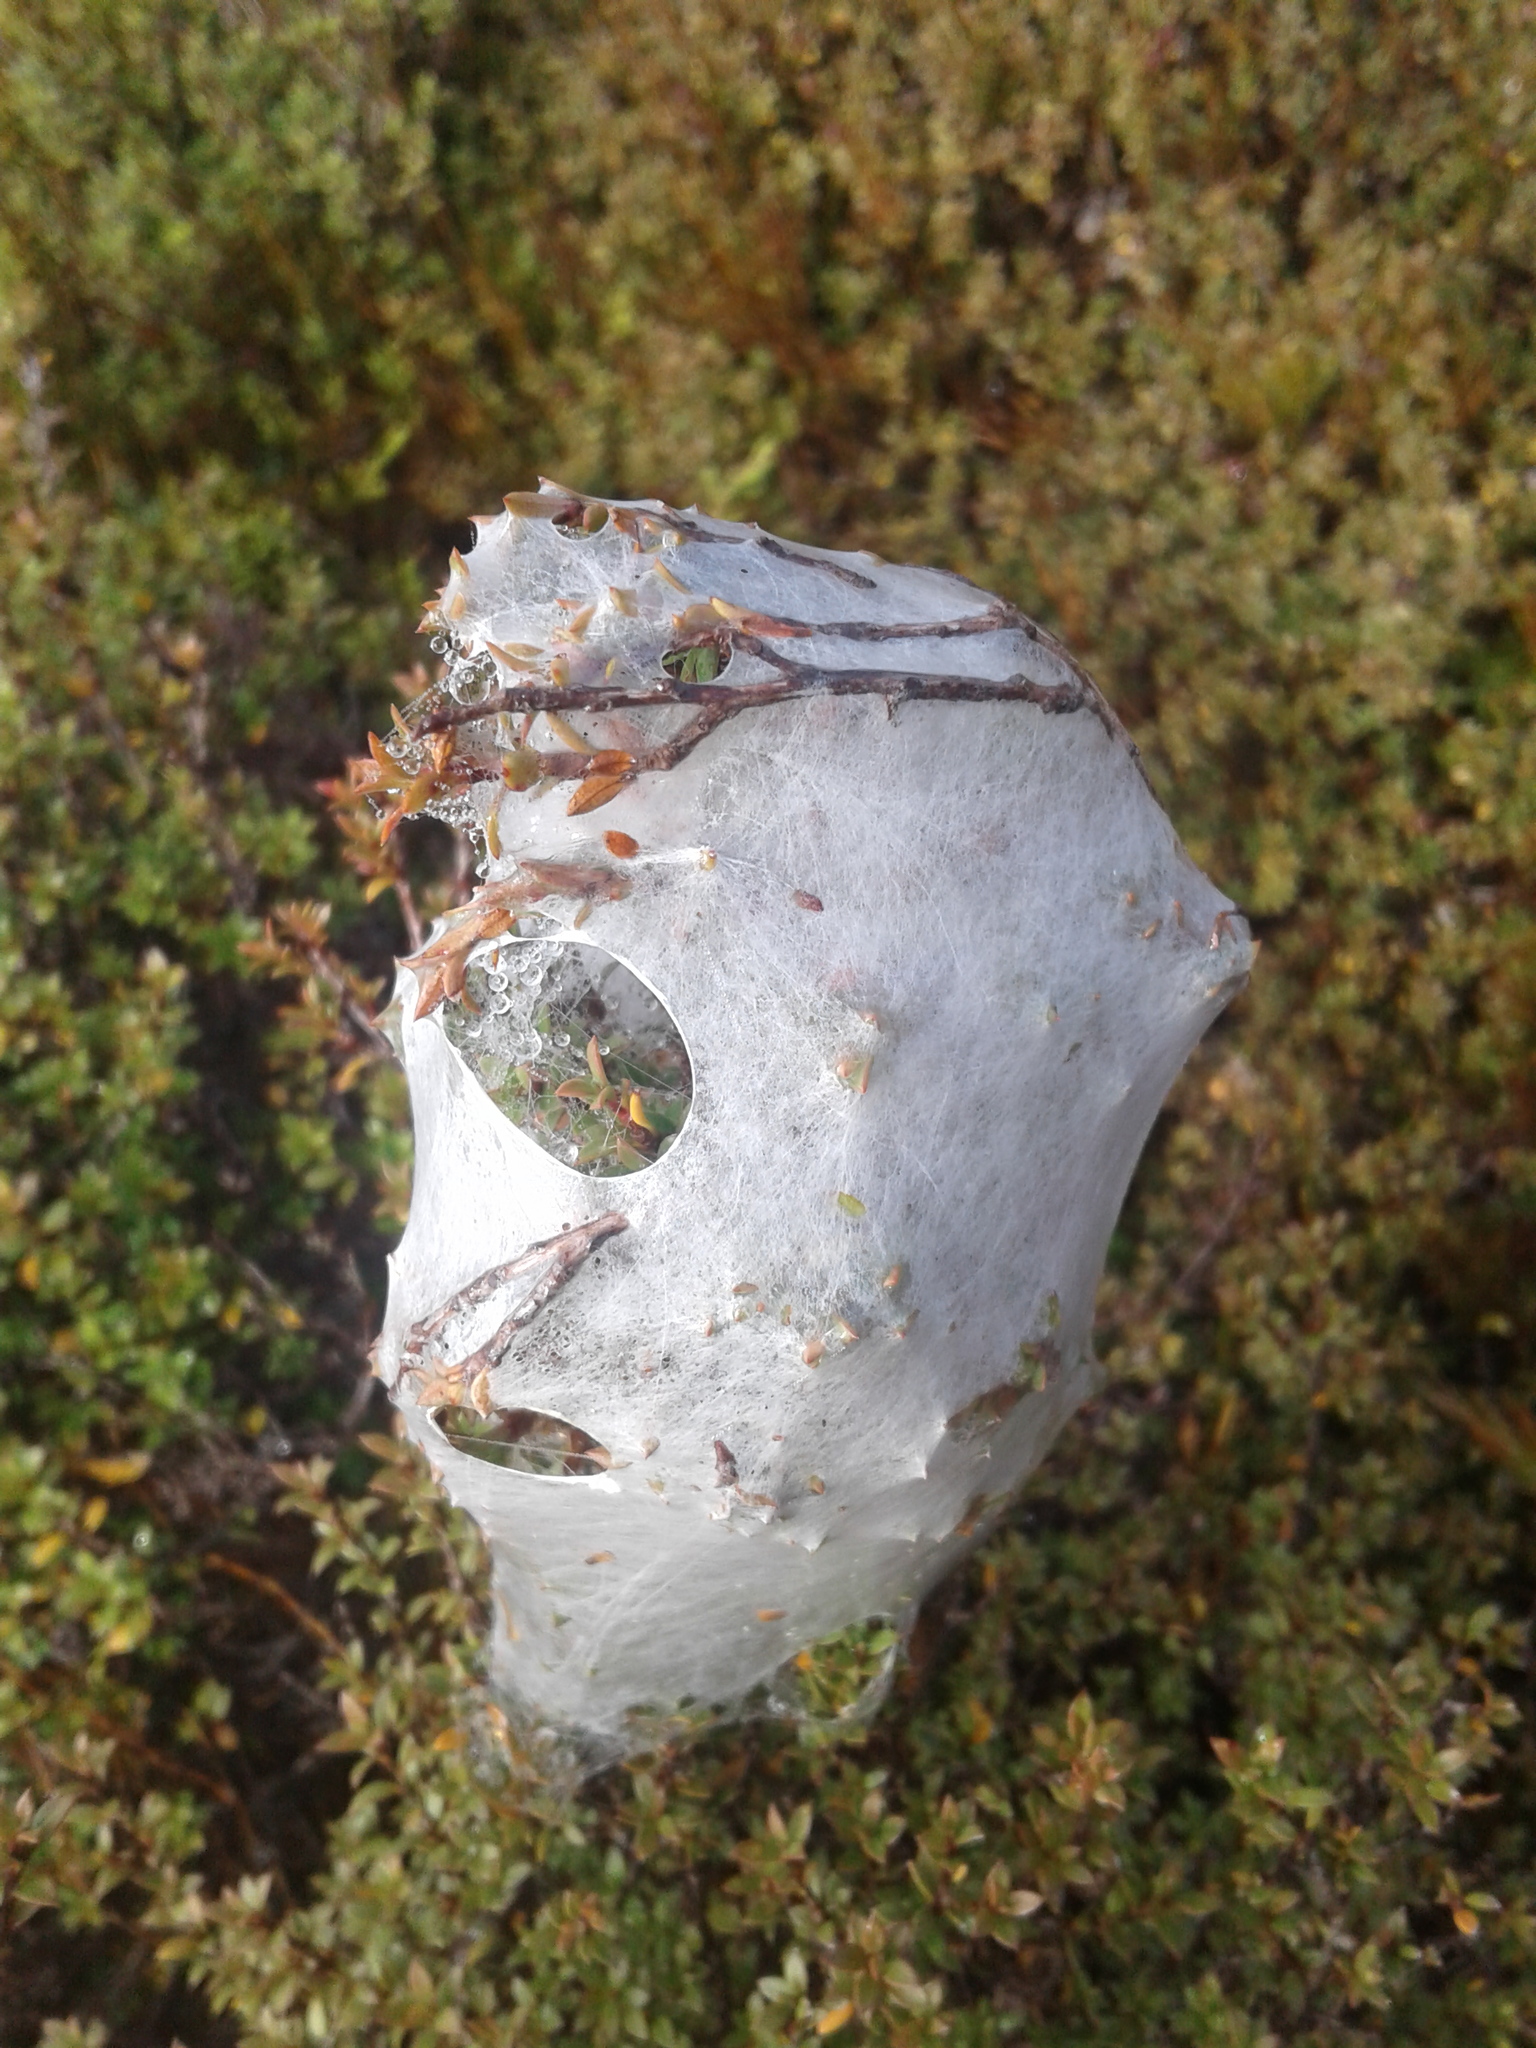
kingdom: Animalia
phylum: Arthropoda
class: Arachnida
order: Araneae
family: Pisauridae
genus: Dolomedes
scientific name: Dolomedes minor
